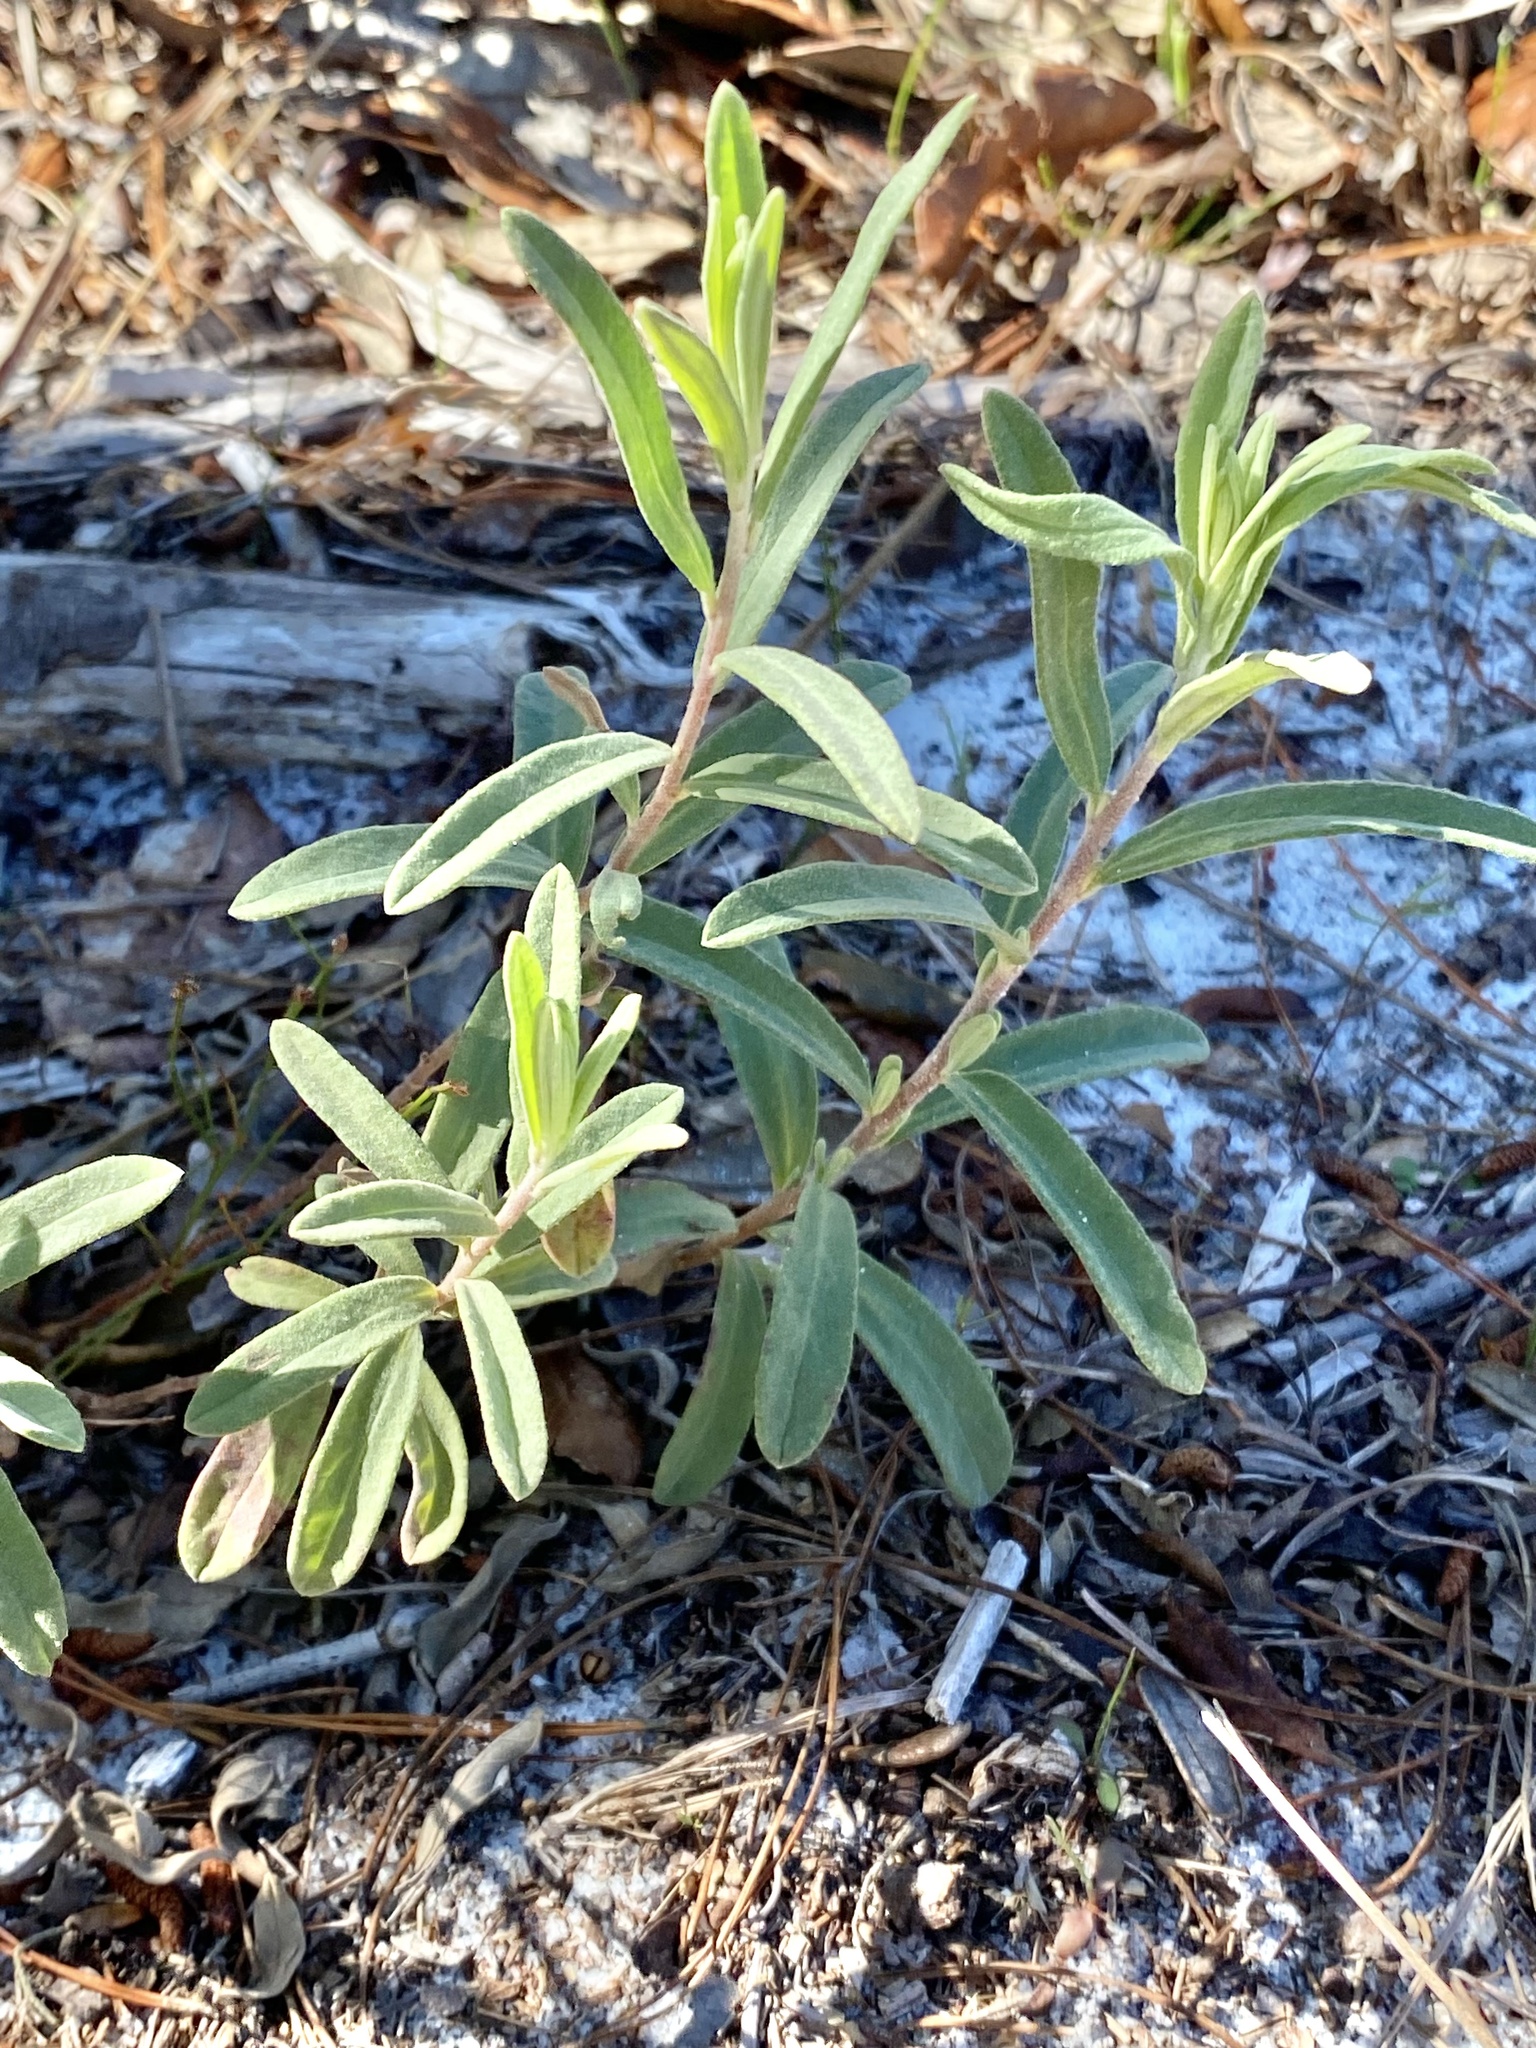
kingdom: Plantae
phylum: Tracheophyta
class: Magnoliopsida
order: Malvales
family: Cistaceae
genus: Crocanthemum
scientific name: Crocanthemum nashii
